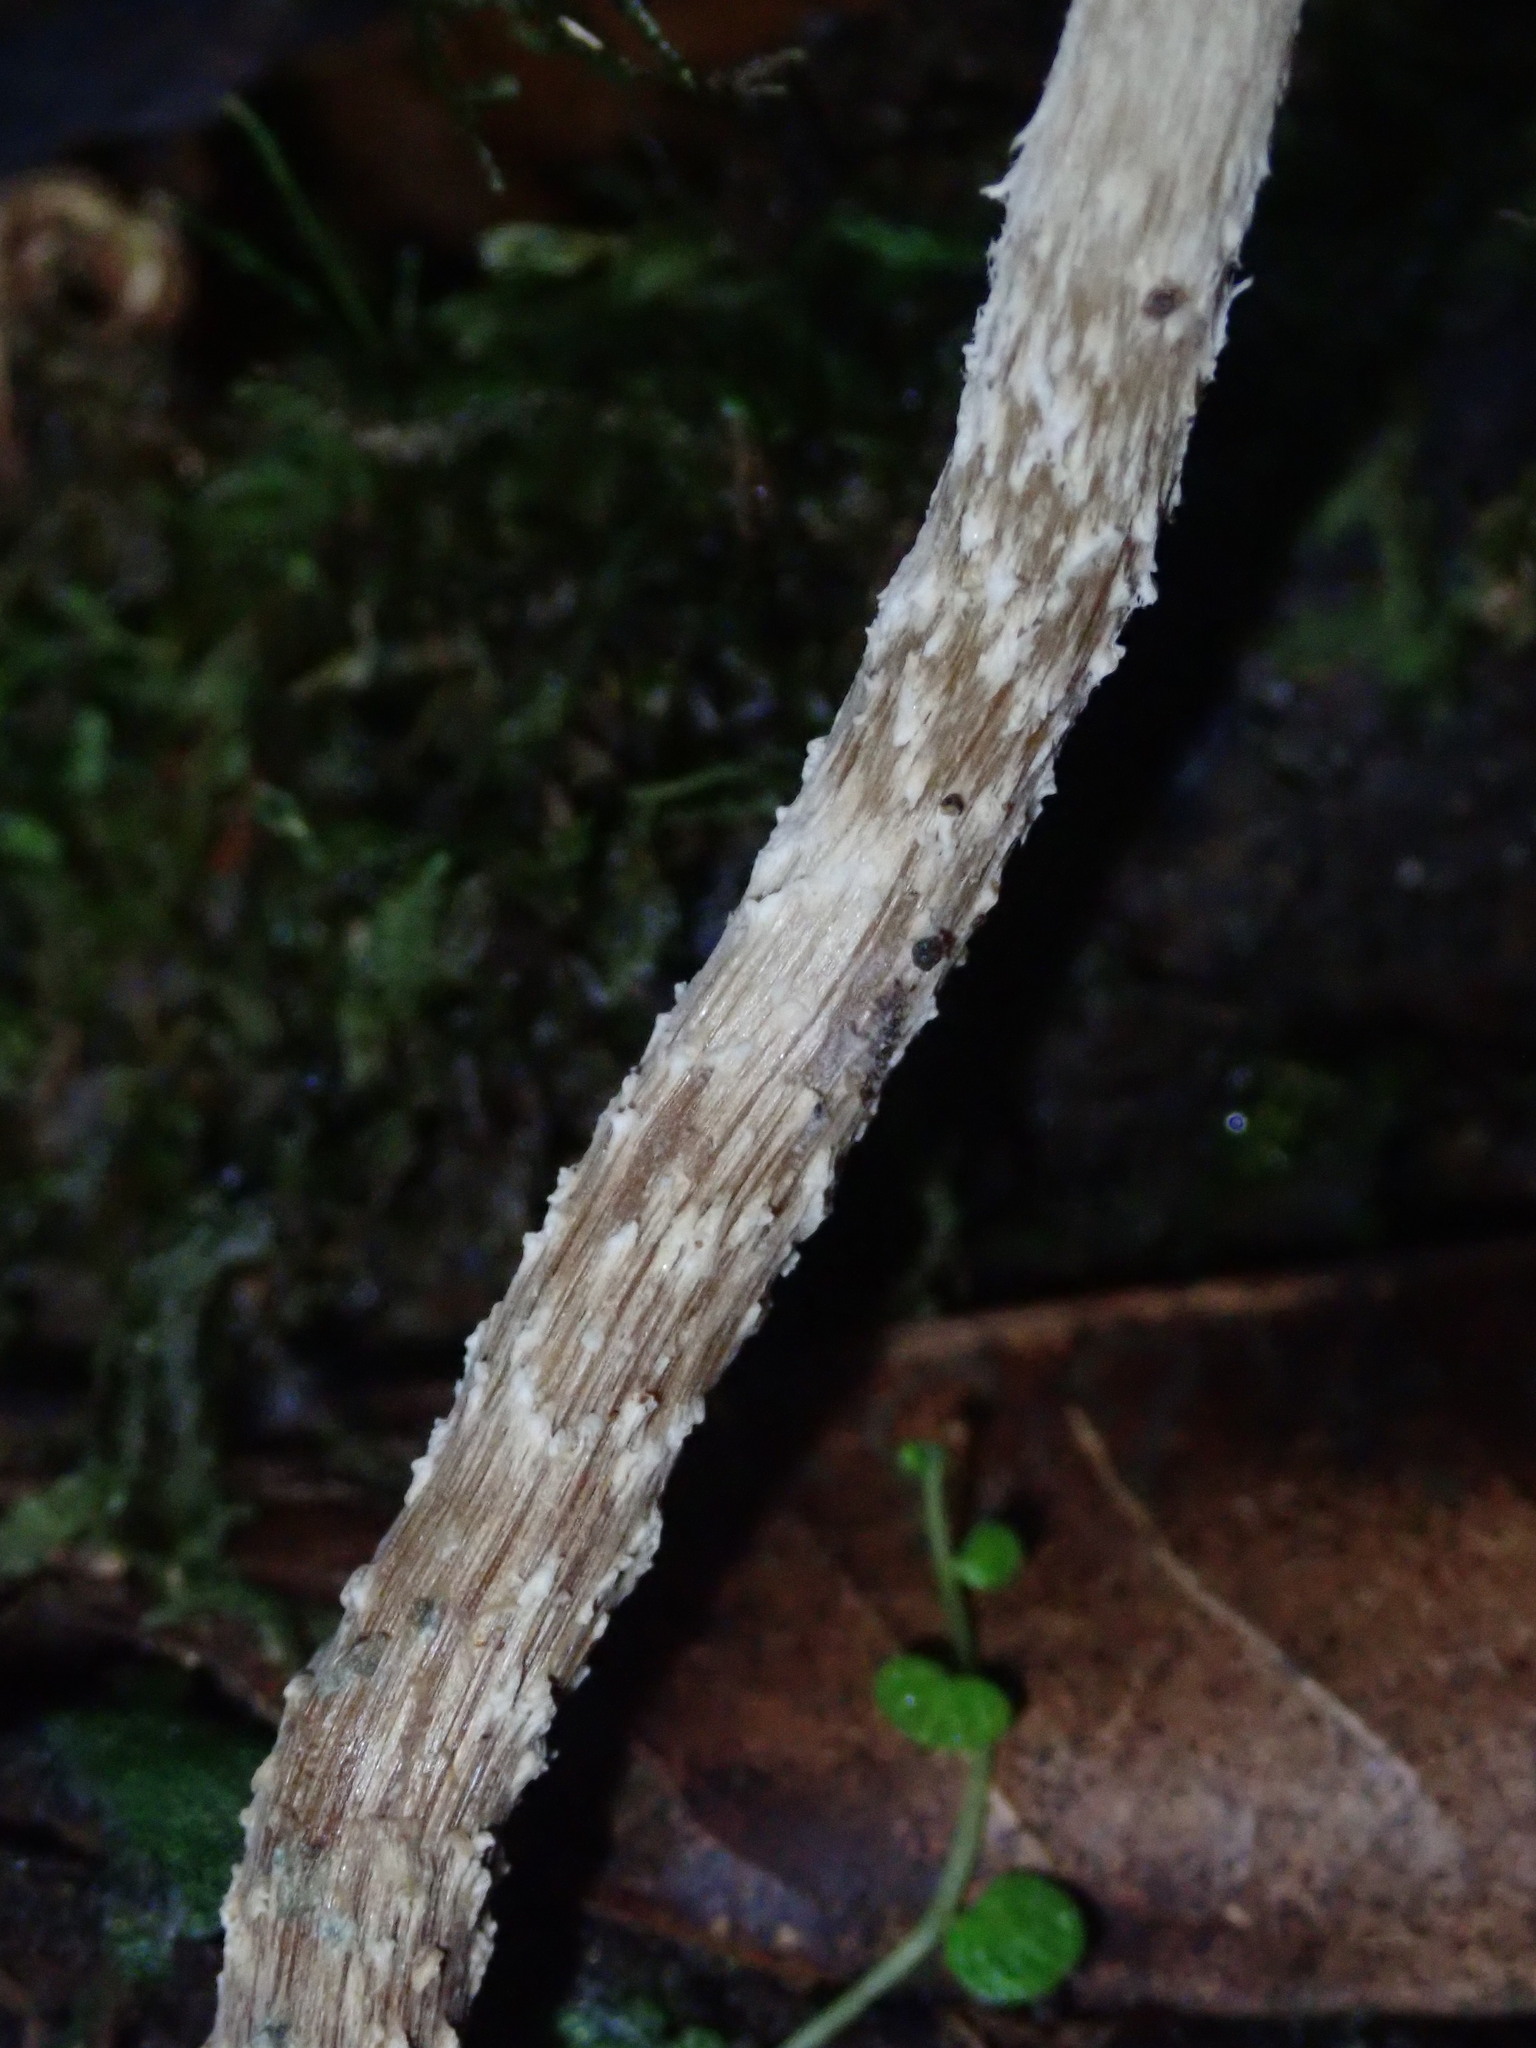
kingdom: Fungi
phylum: Basidiomycota
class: Agaricomycetes
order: Agaricales
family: Hymenogastraceae
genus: Psilocybe
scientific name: Psilocybe zapotecorum
